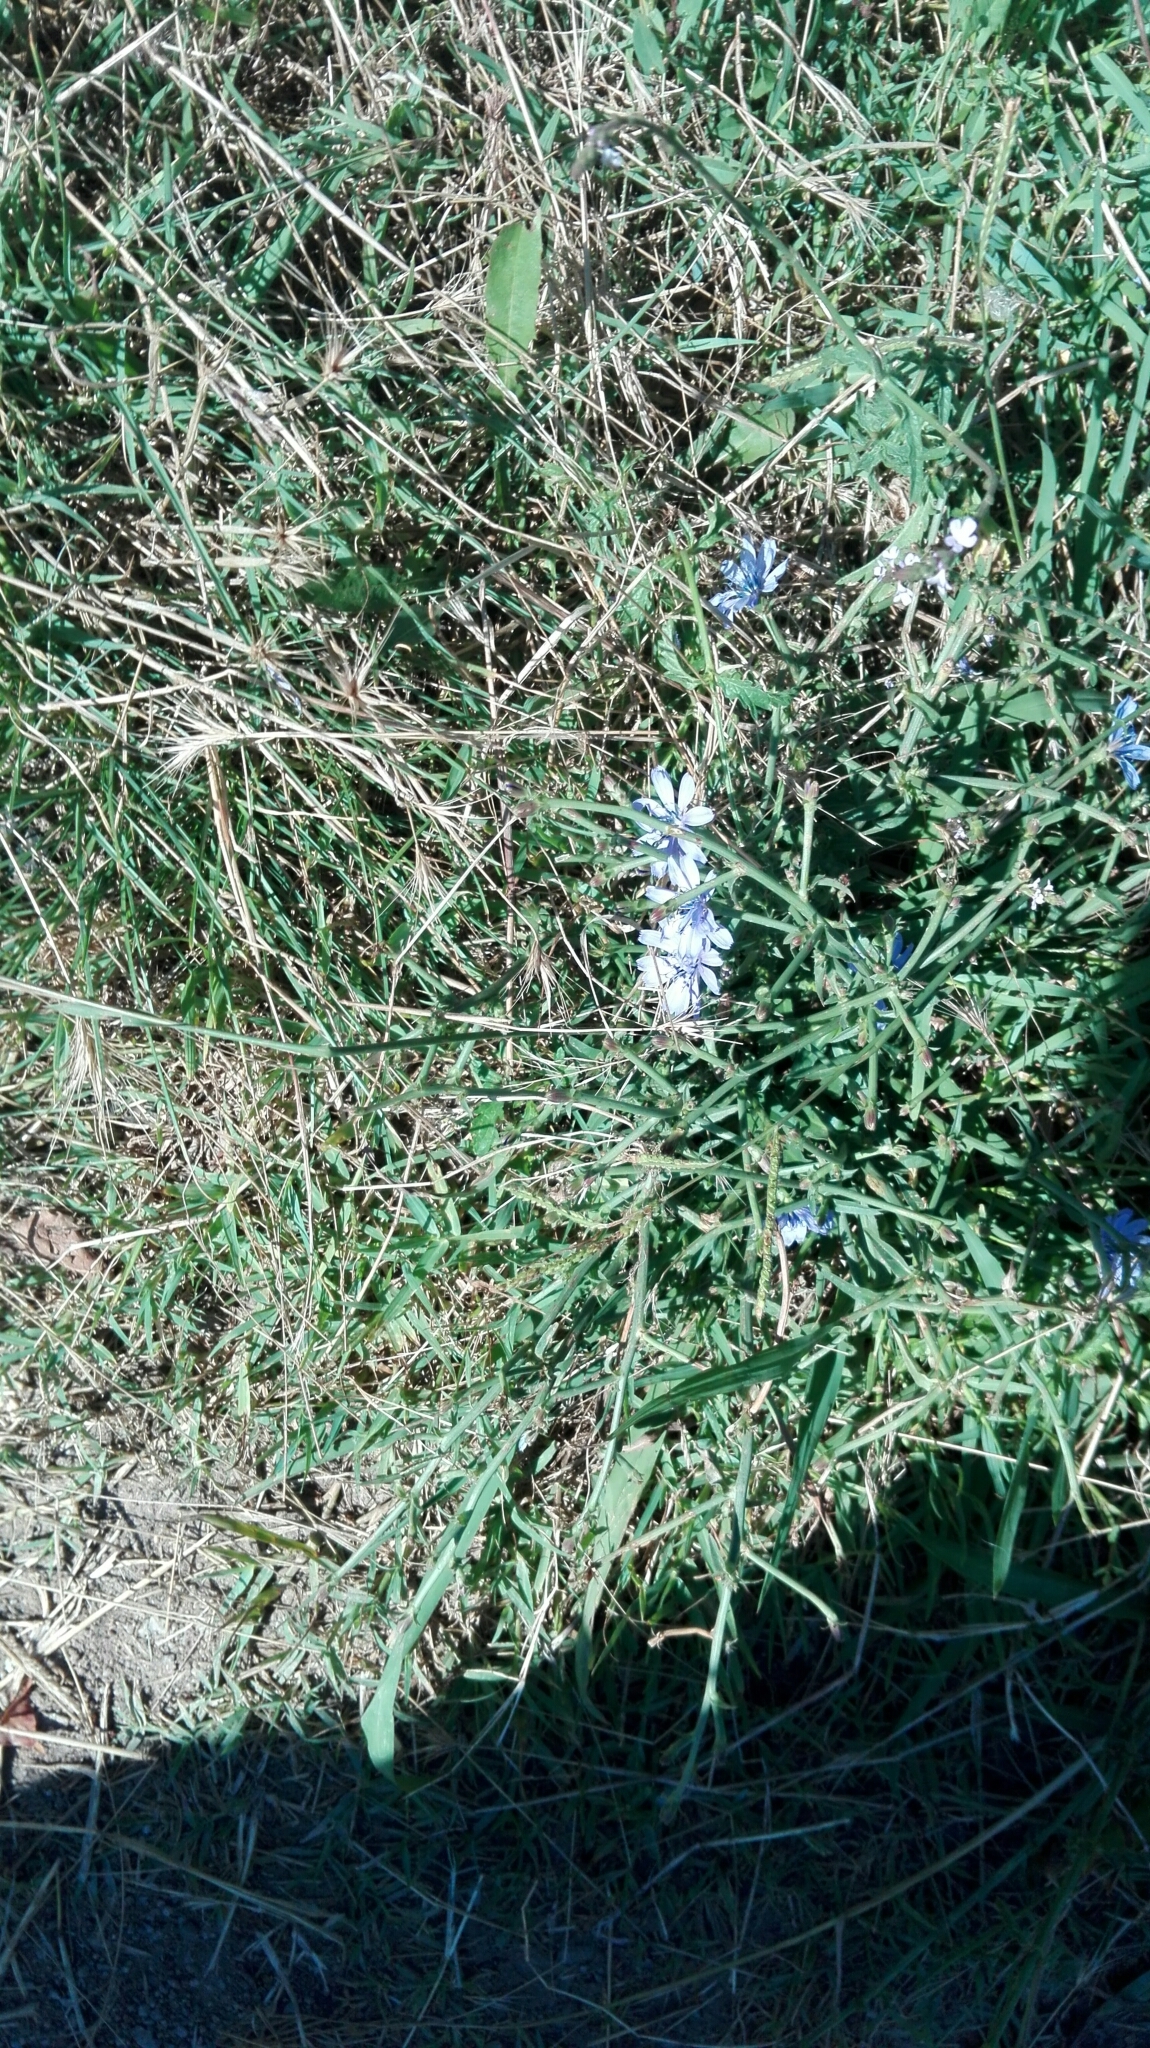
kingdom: Plantae
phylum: Tracheophyta
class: Magnoliopsida
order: Asterales
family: Asteraceae
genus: Cichorium
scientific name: Cichorium intybus
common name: Chicory
